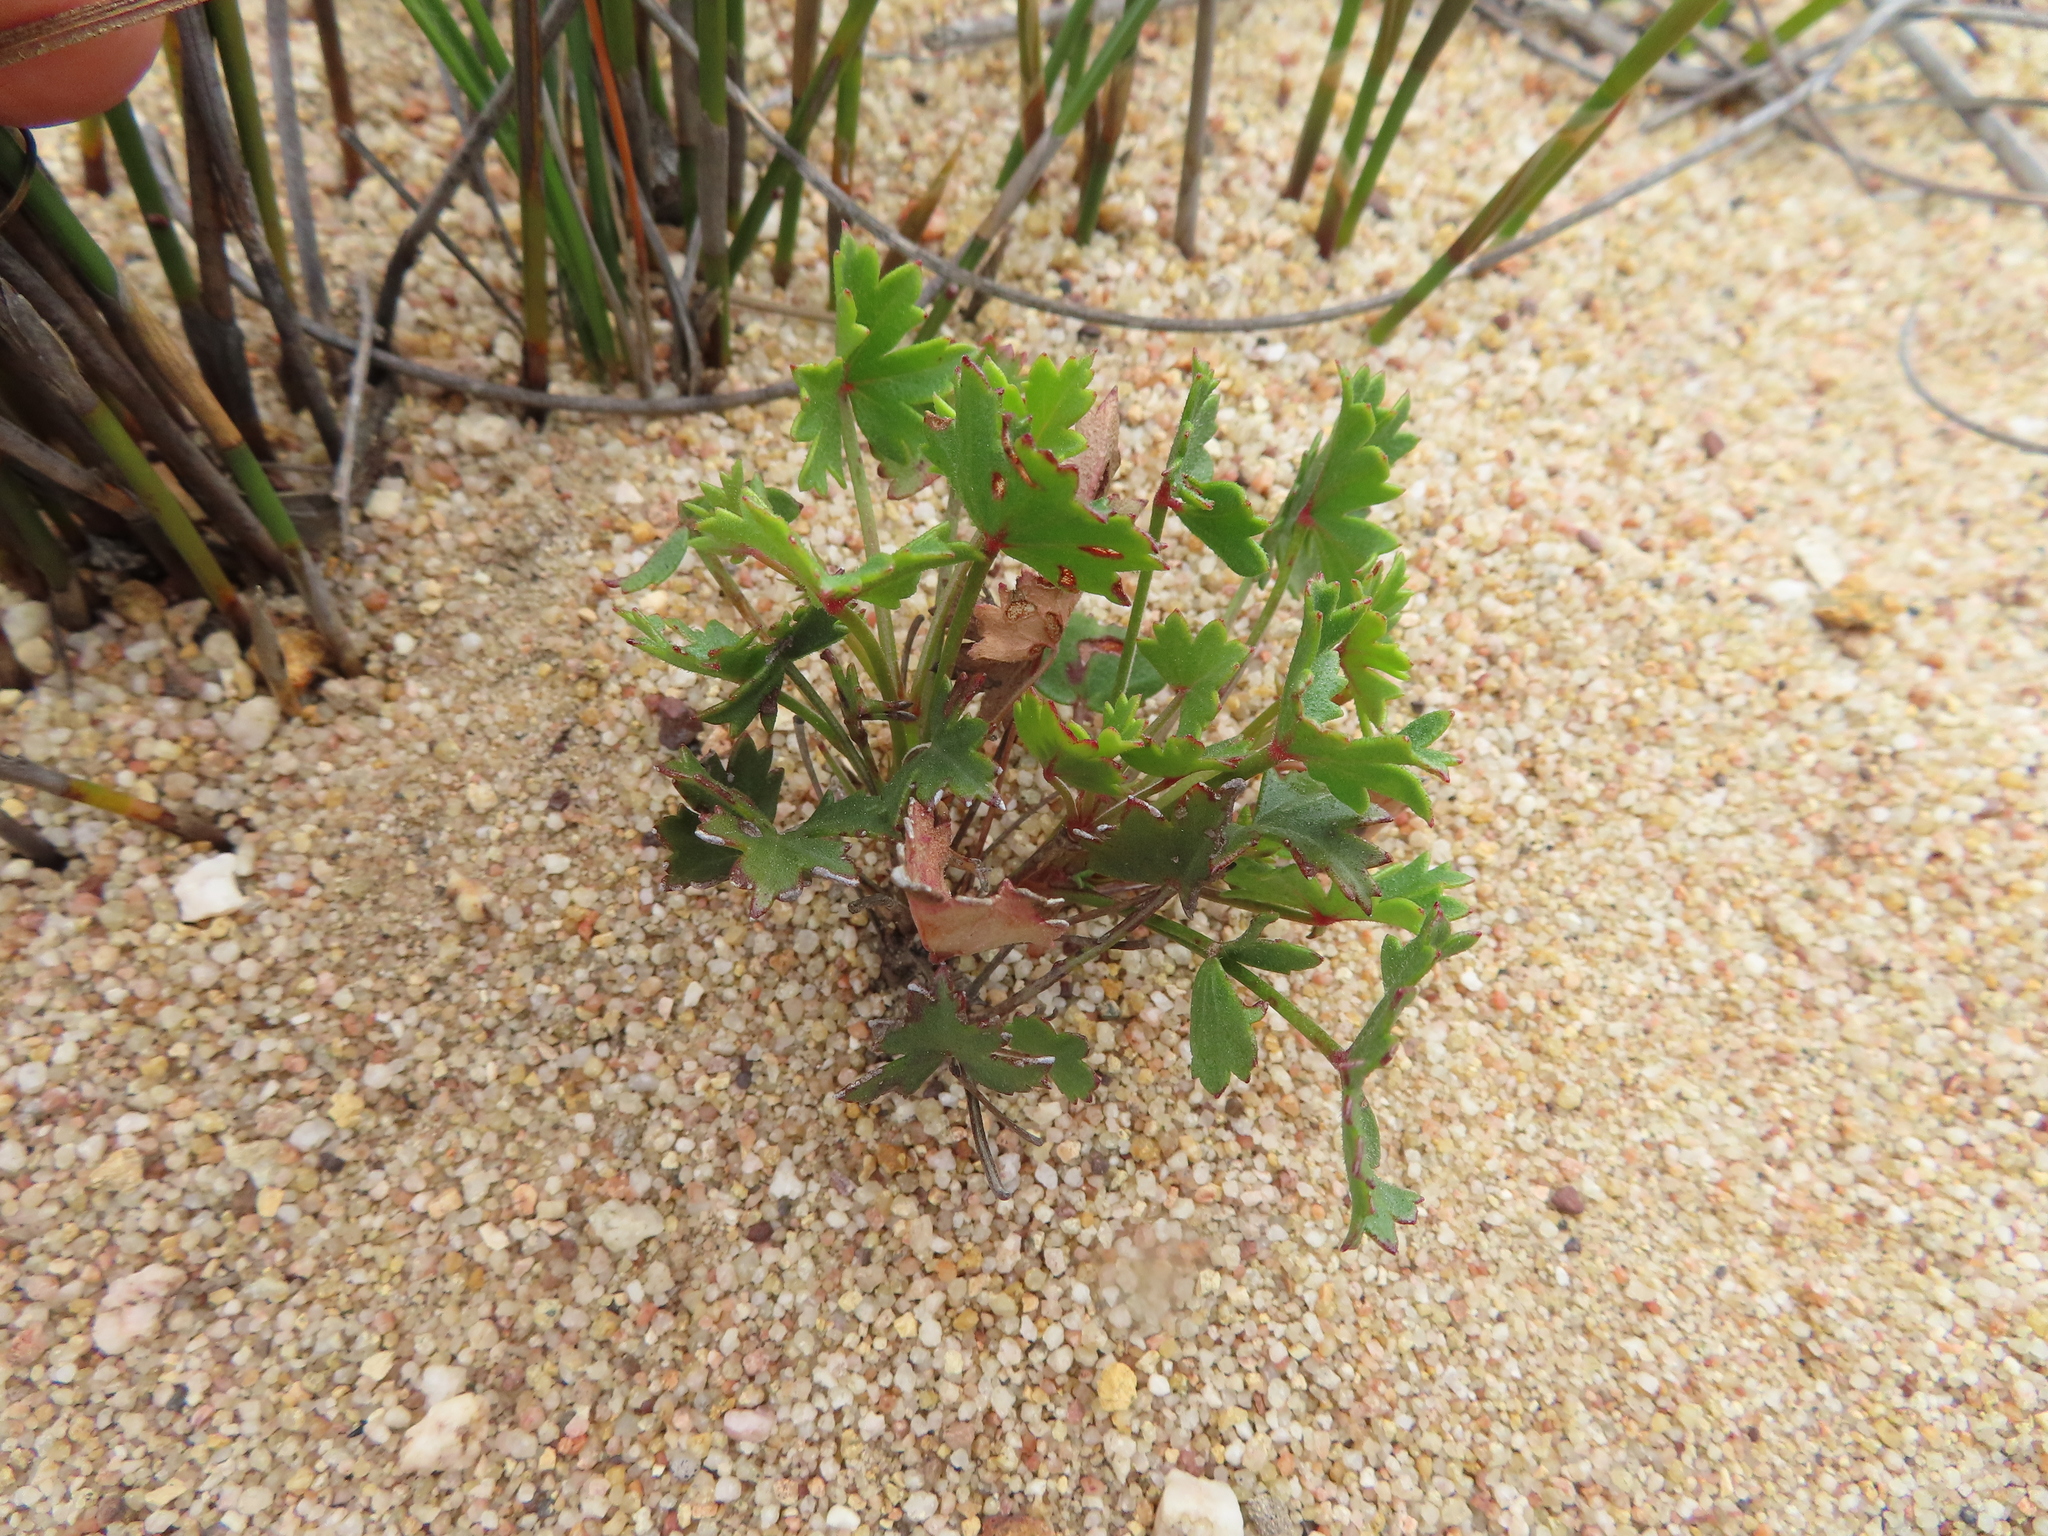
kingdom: Plantae
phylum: Tracheophyta
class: Magnoliopsida
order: Geraniales
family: Geraniaceae
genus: Pelargonium
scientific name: Pelargonium incarnatum
